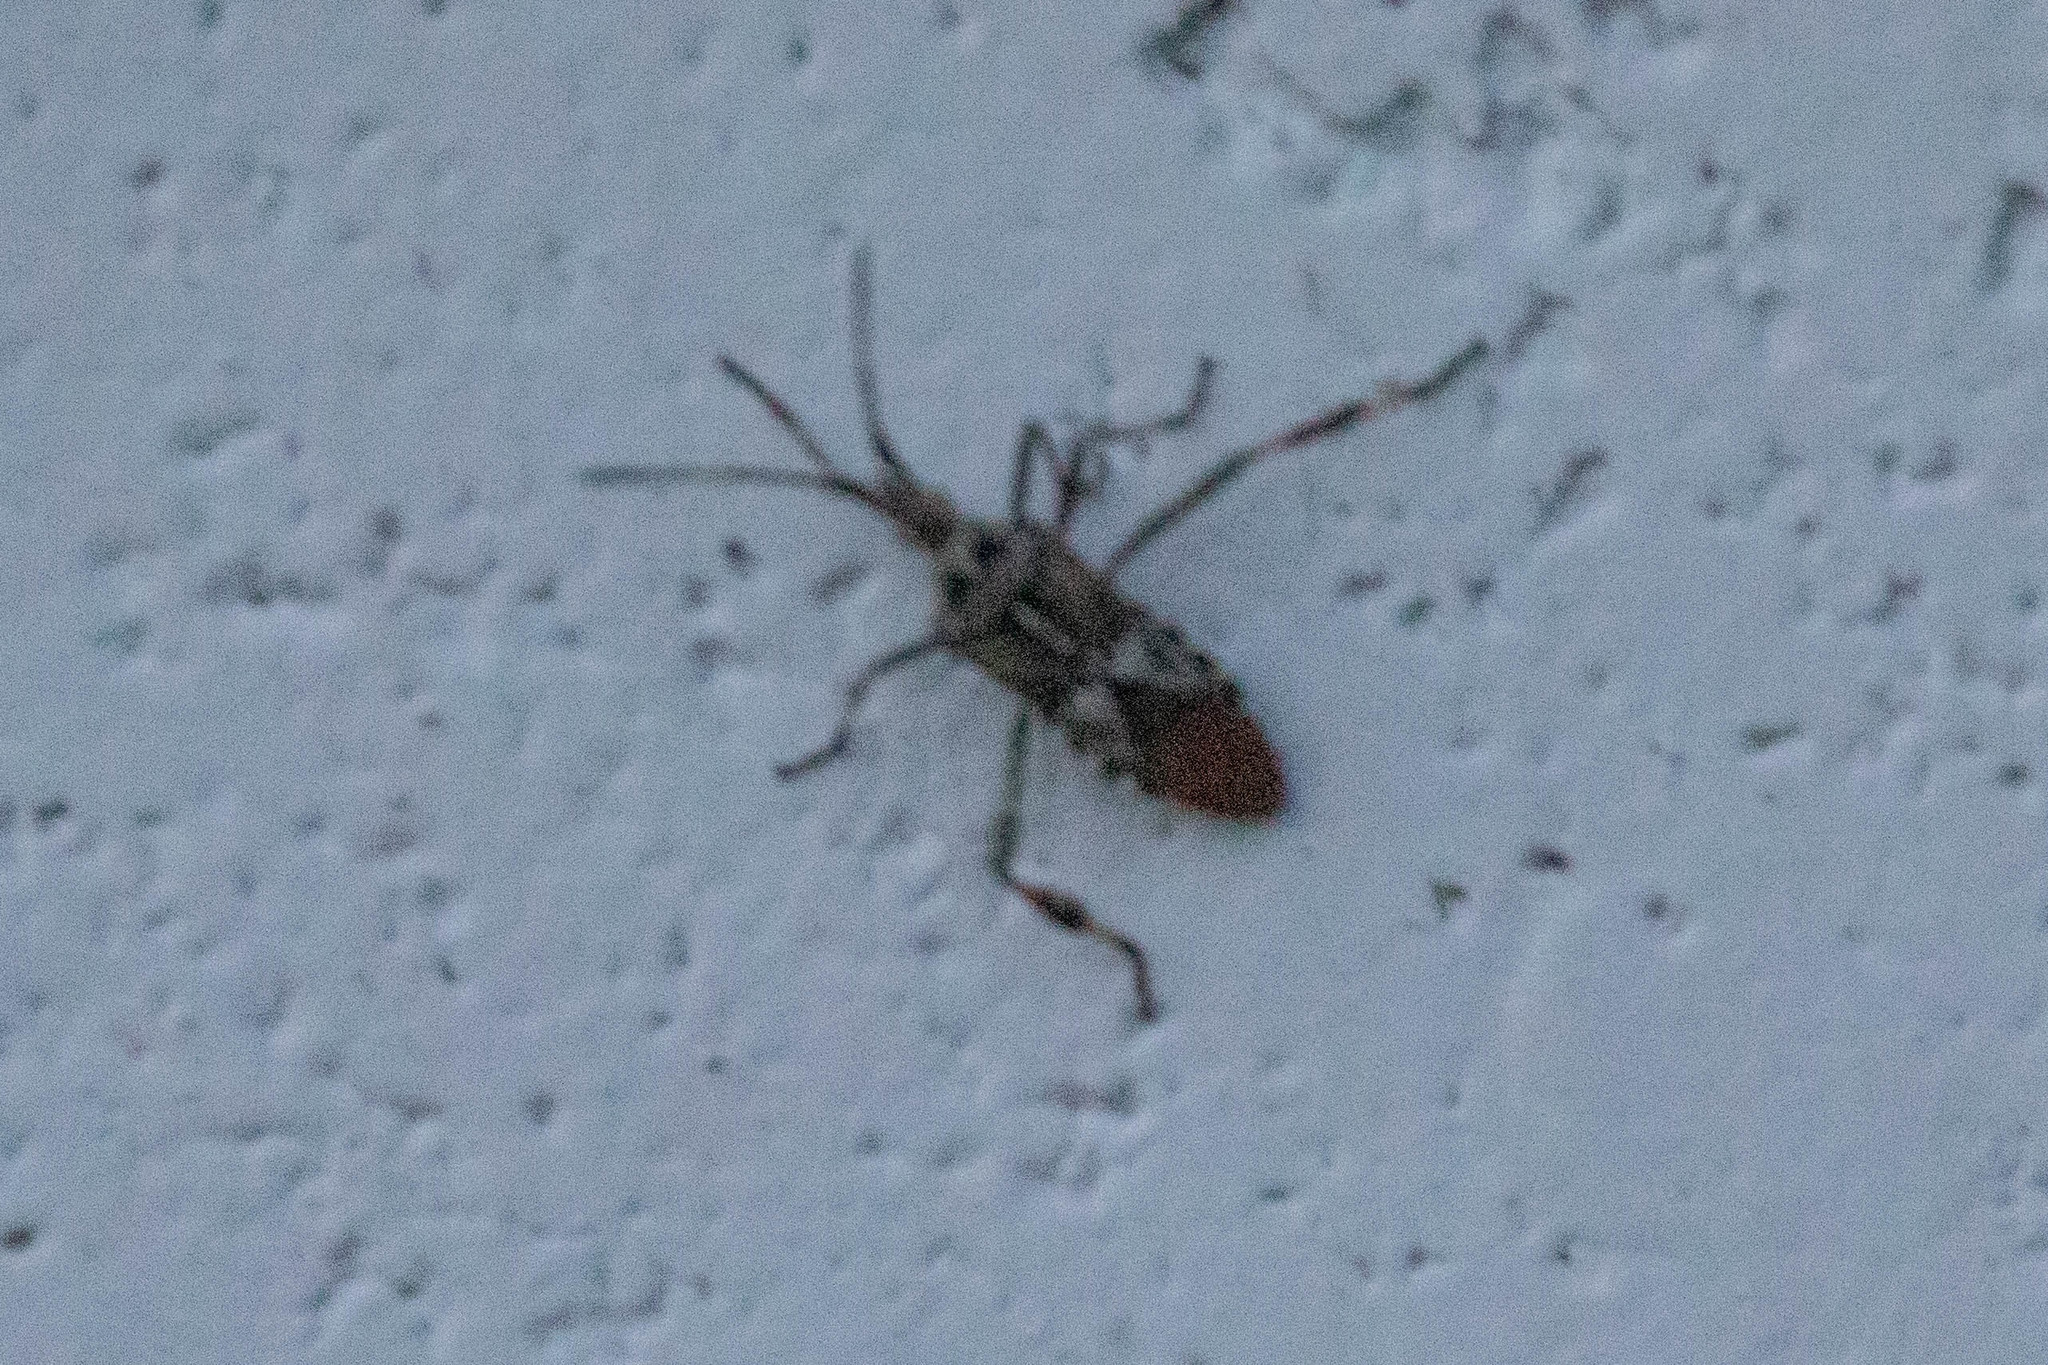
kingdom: Animalia
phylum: Arthropoda
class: Insecta
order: Hemiptera
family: Coreidae
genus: Leptoglossus
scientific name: Leptoglossus occidentalis
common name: Western conifer-seed bug
